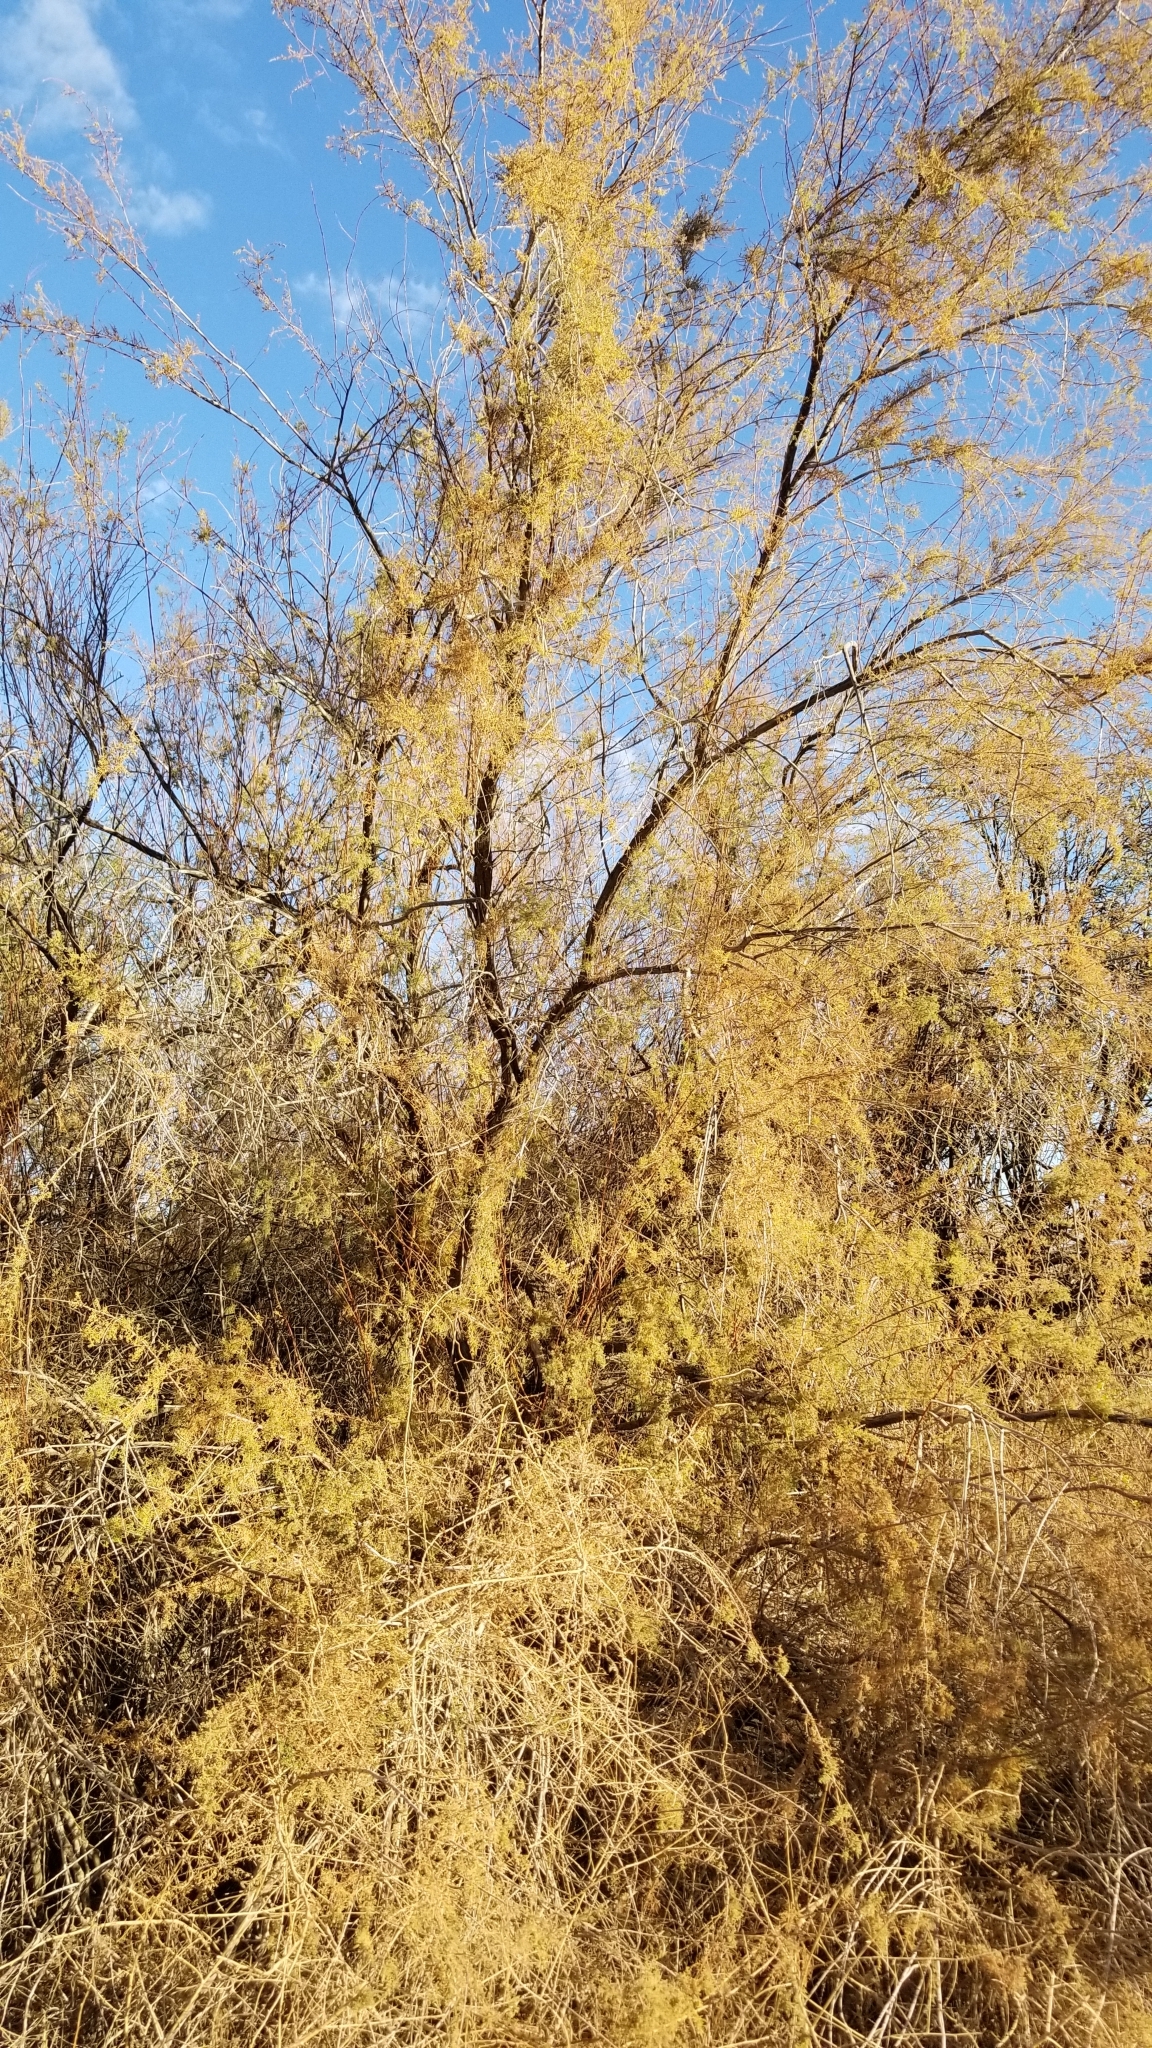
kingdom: Plantae
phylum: Tracheophyta
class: Magnoliopsida
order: Caryophyllales
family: Tamaricaceae
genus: Tamarix
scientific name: Tamarix
